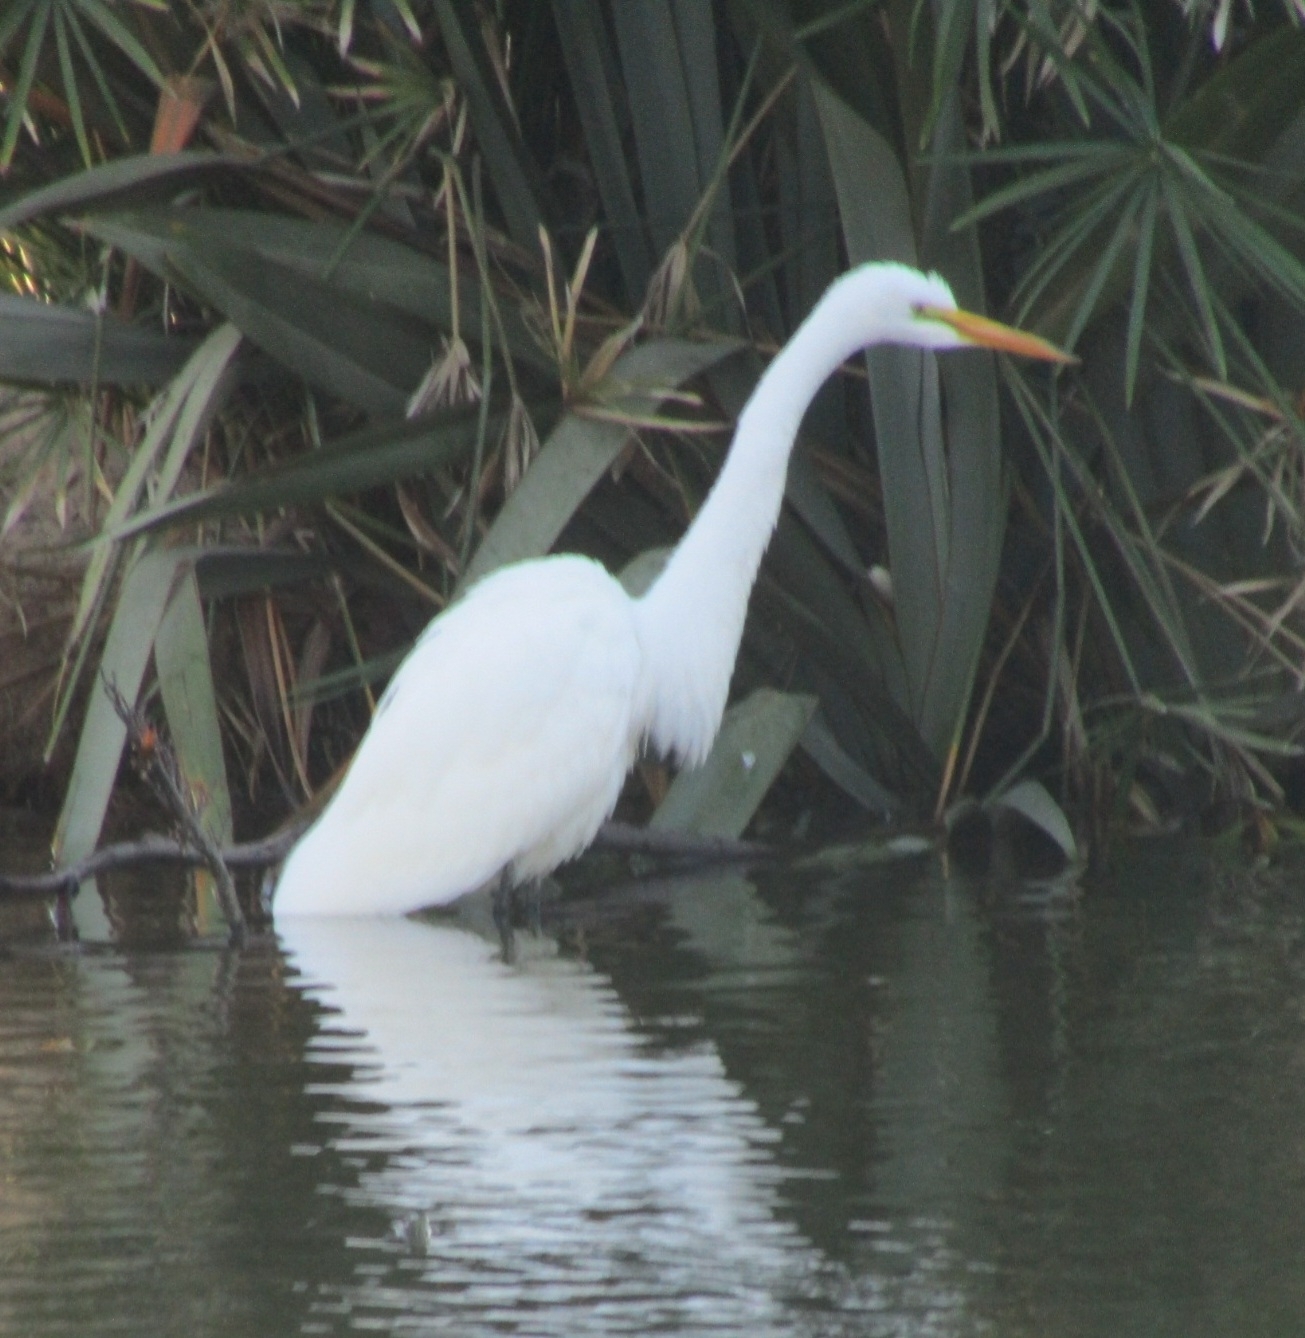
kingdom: Animalia
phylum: Chordata
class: Aves
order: Pelecaniformes
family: Ardeidae
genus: Ardea
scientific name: Ardea alba
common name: Great egret
